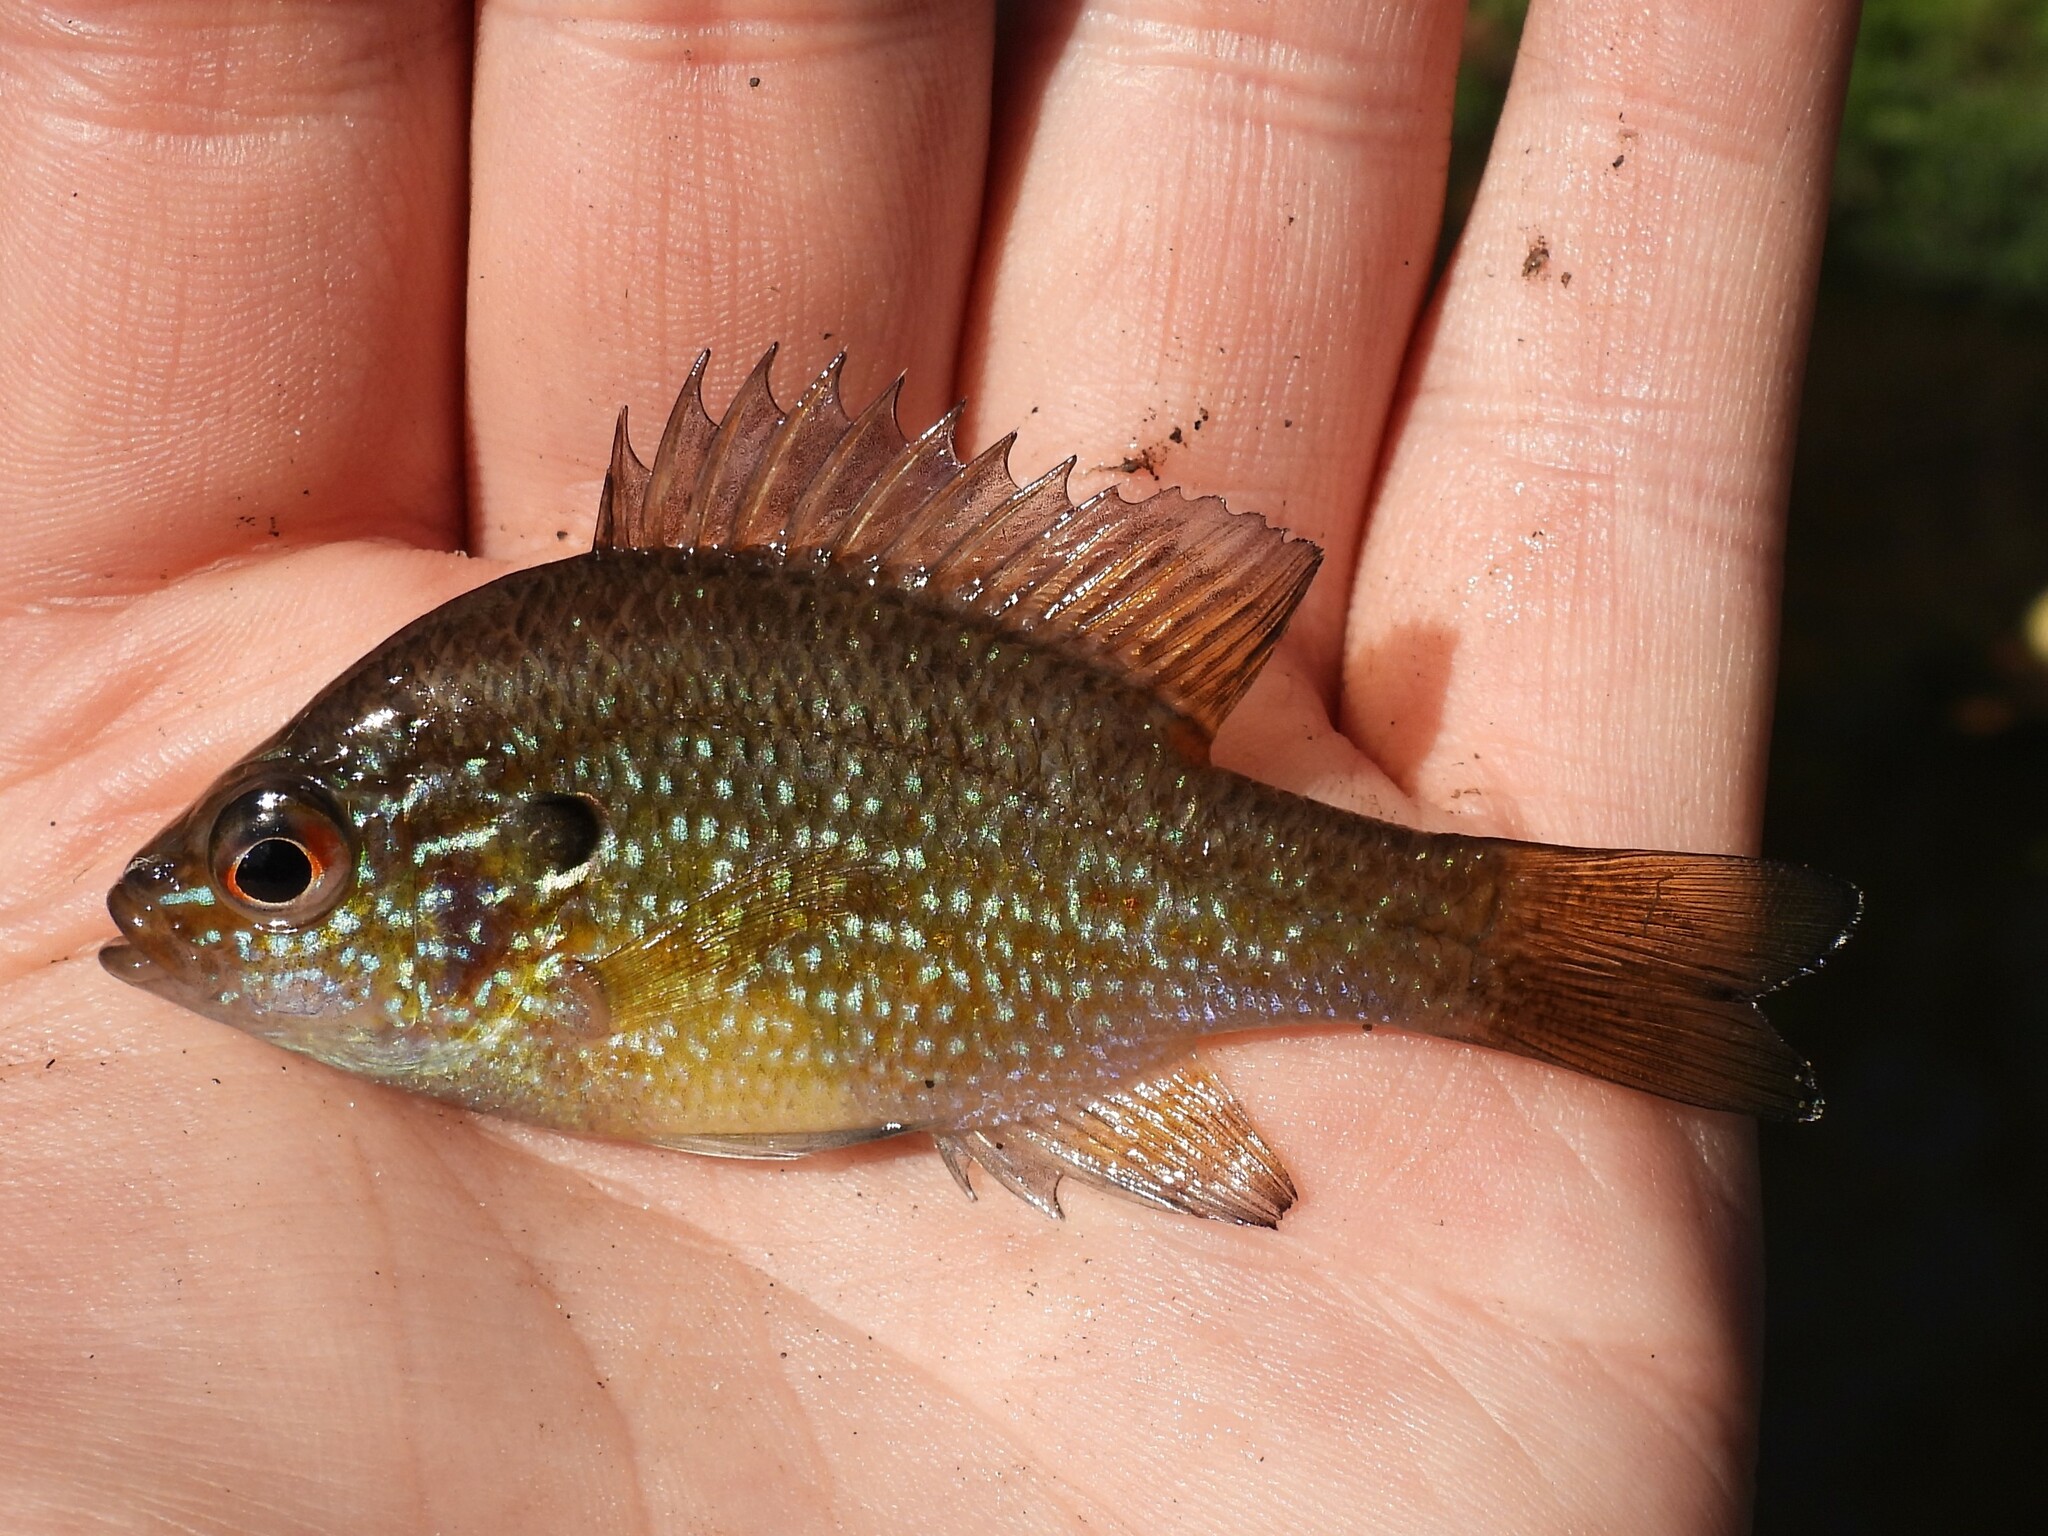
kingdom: Animalia
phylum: Chordata
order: Perciformes
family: Centrarchidae
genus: Lepomis
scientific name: Lepomis marginatus
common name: Dollar sunfish
